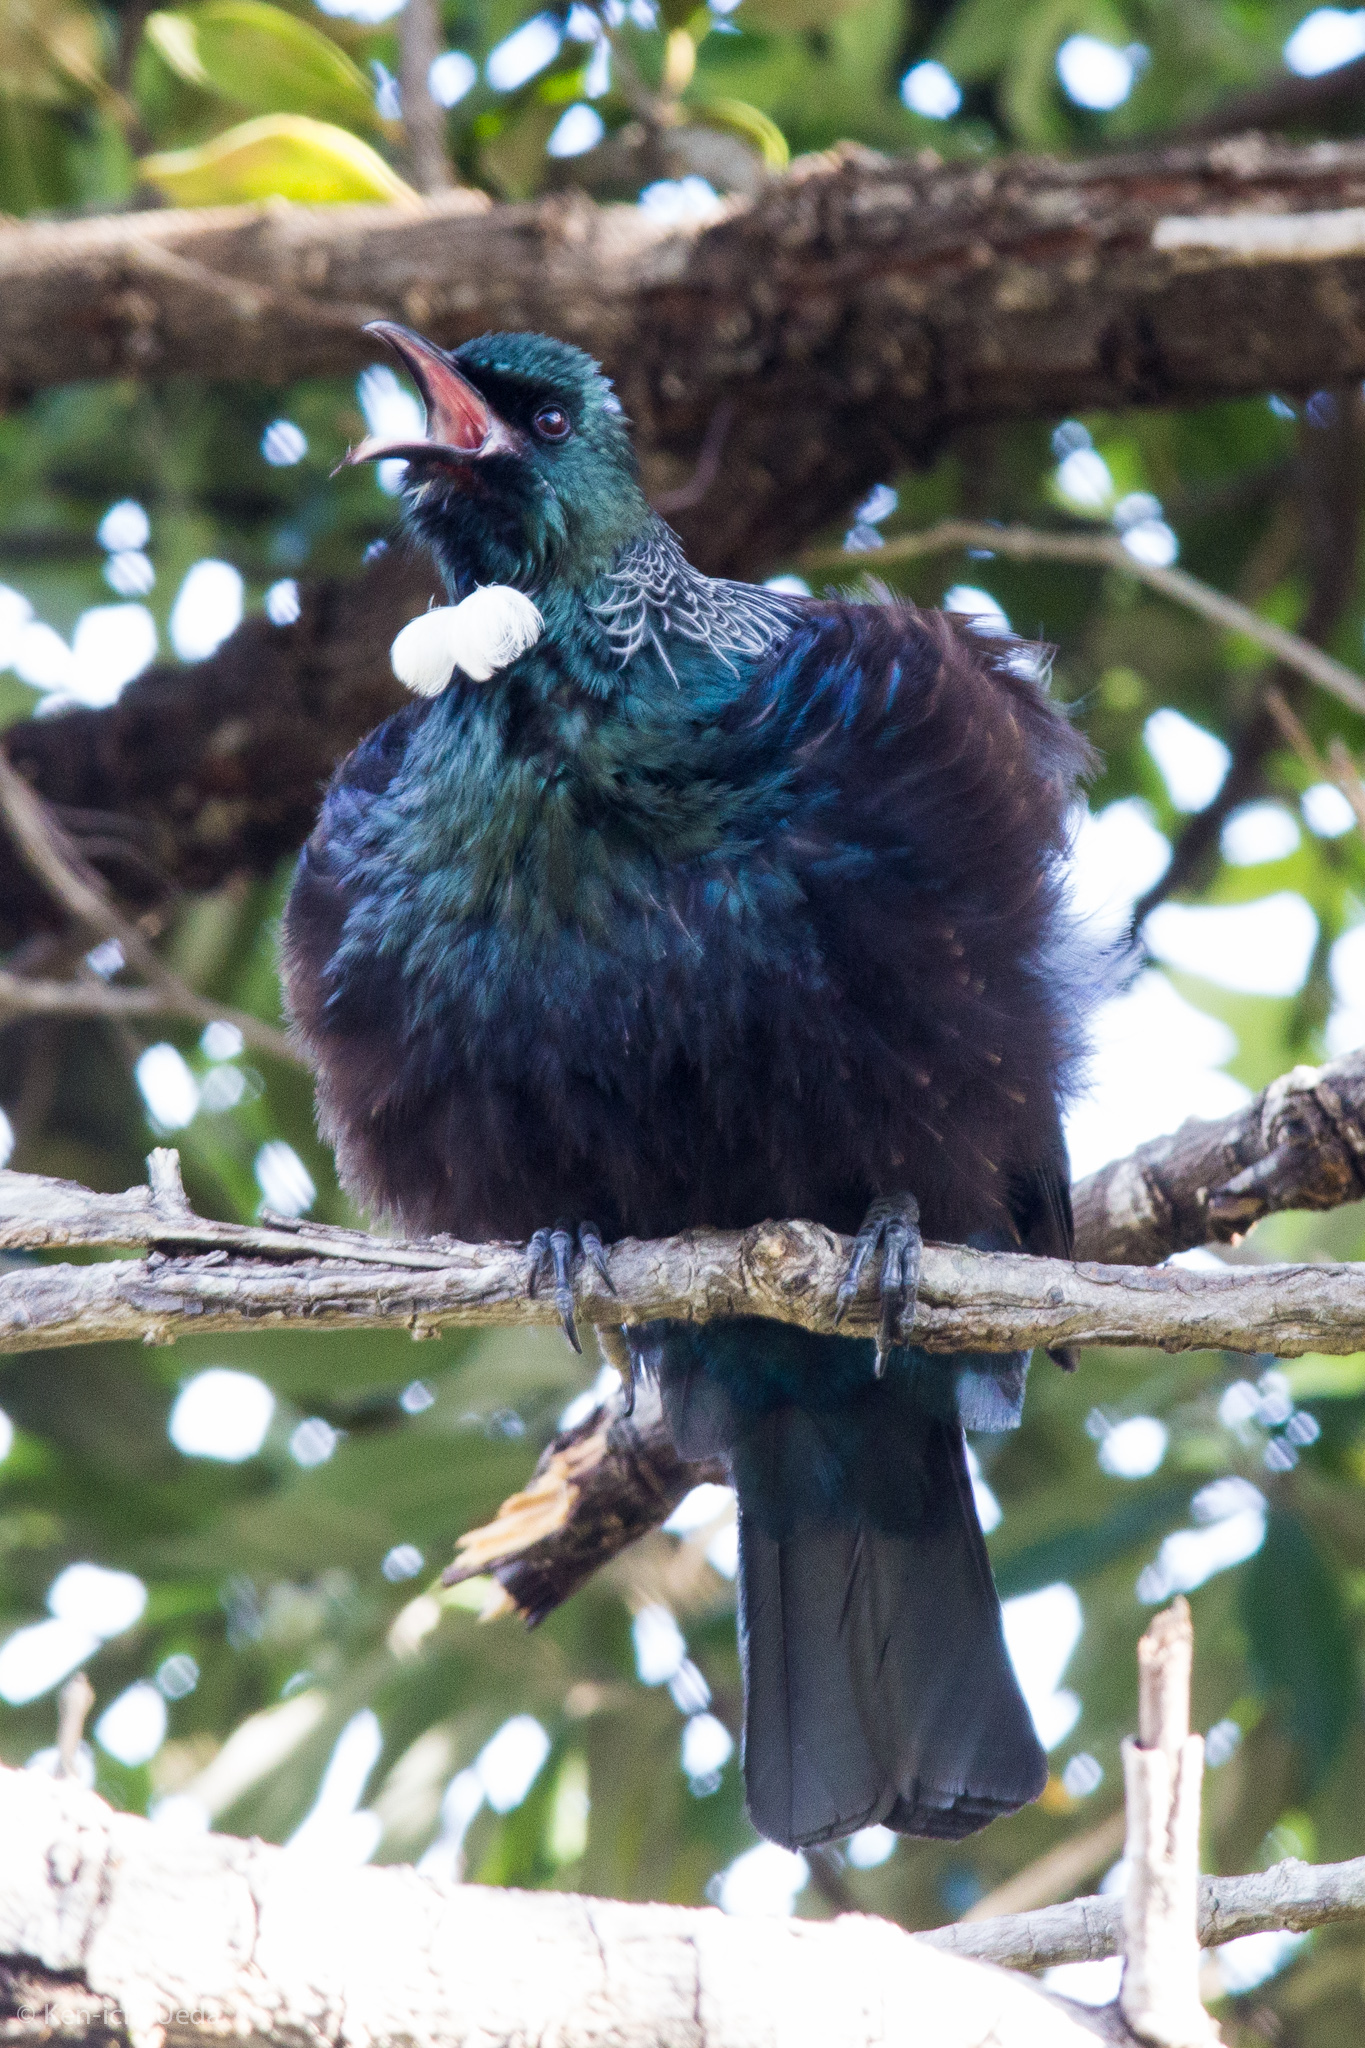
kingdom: Animalia
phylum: Chordata
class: Aves
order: Passeriformes
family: Meliphagidae
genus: Prosthemadera
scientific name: Prosthemadera novaeseelandiae
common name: Tui
